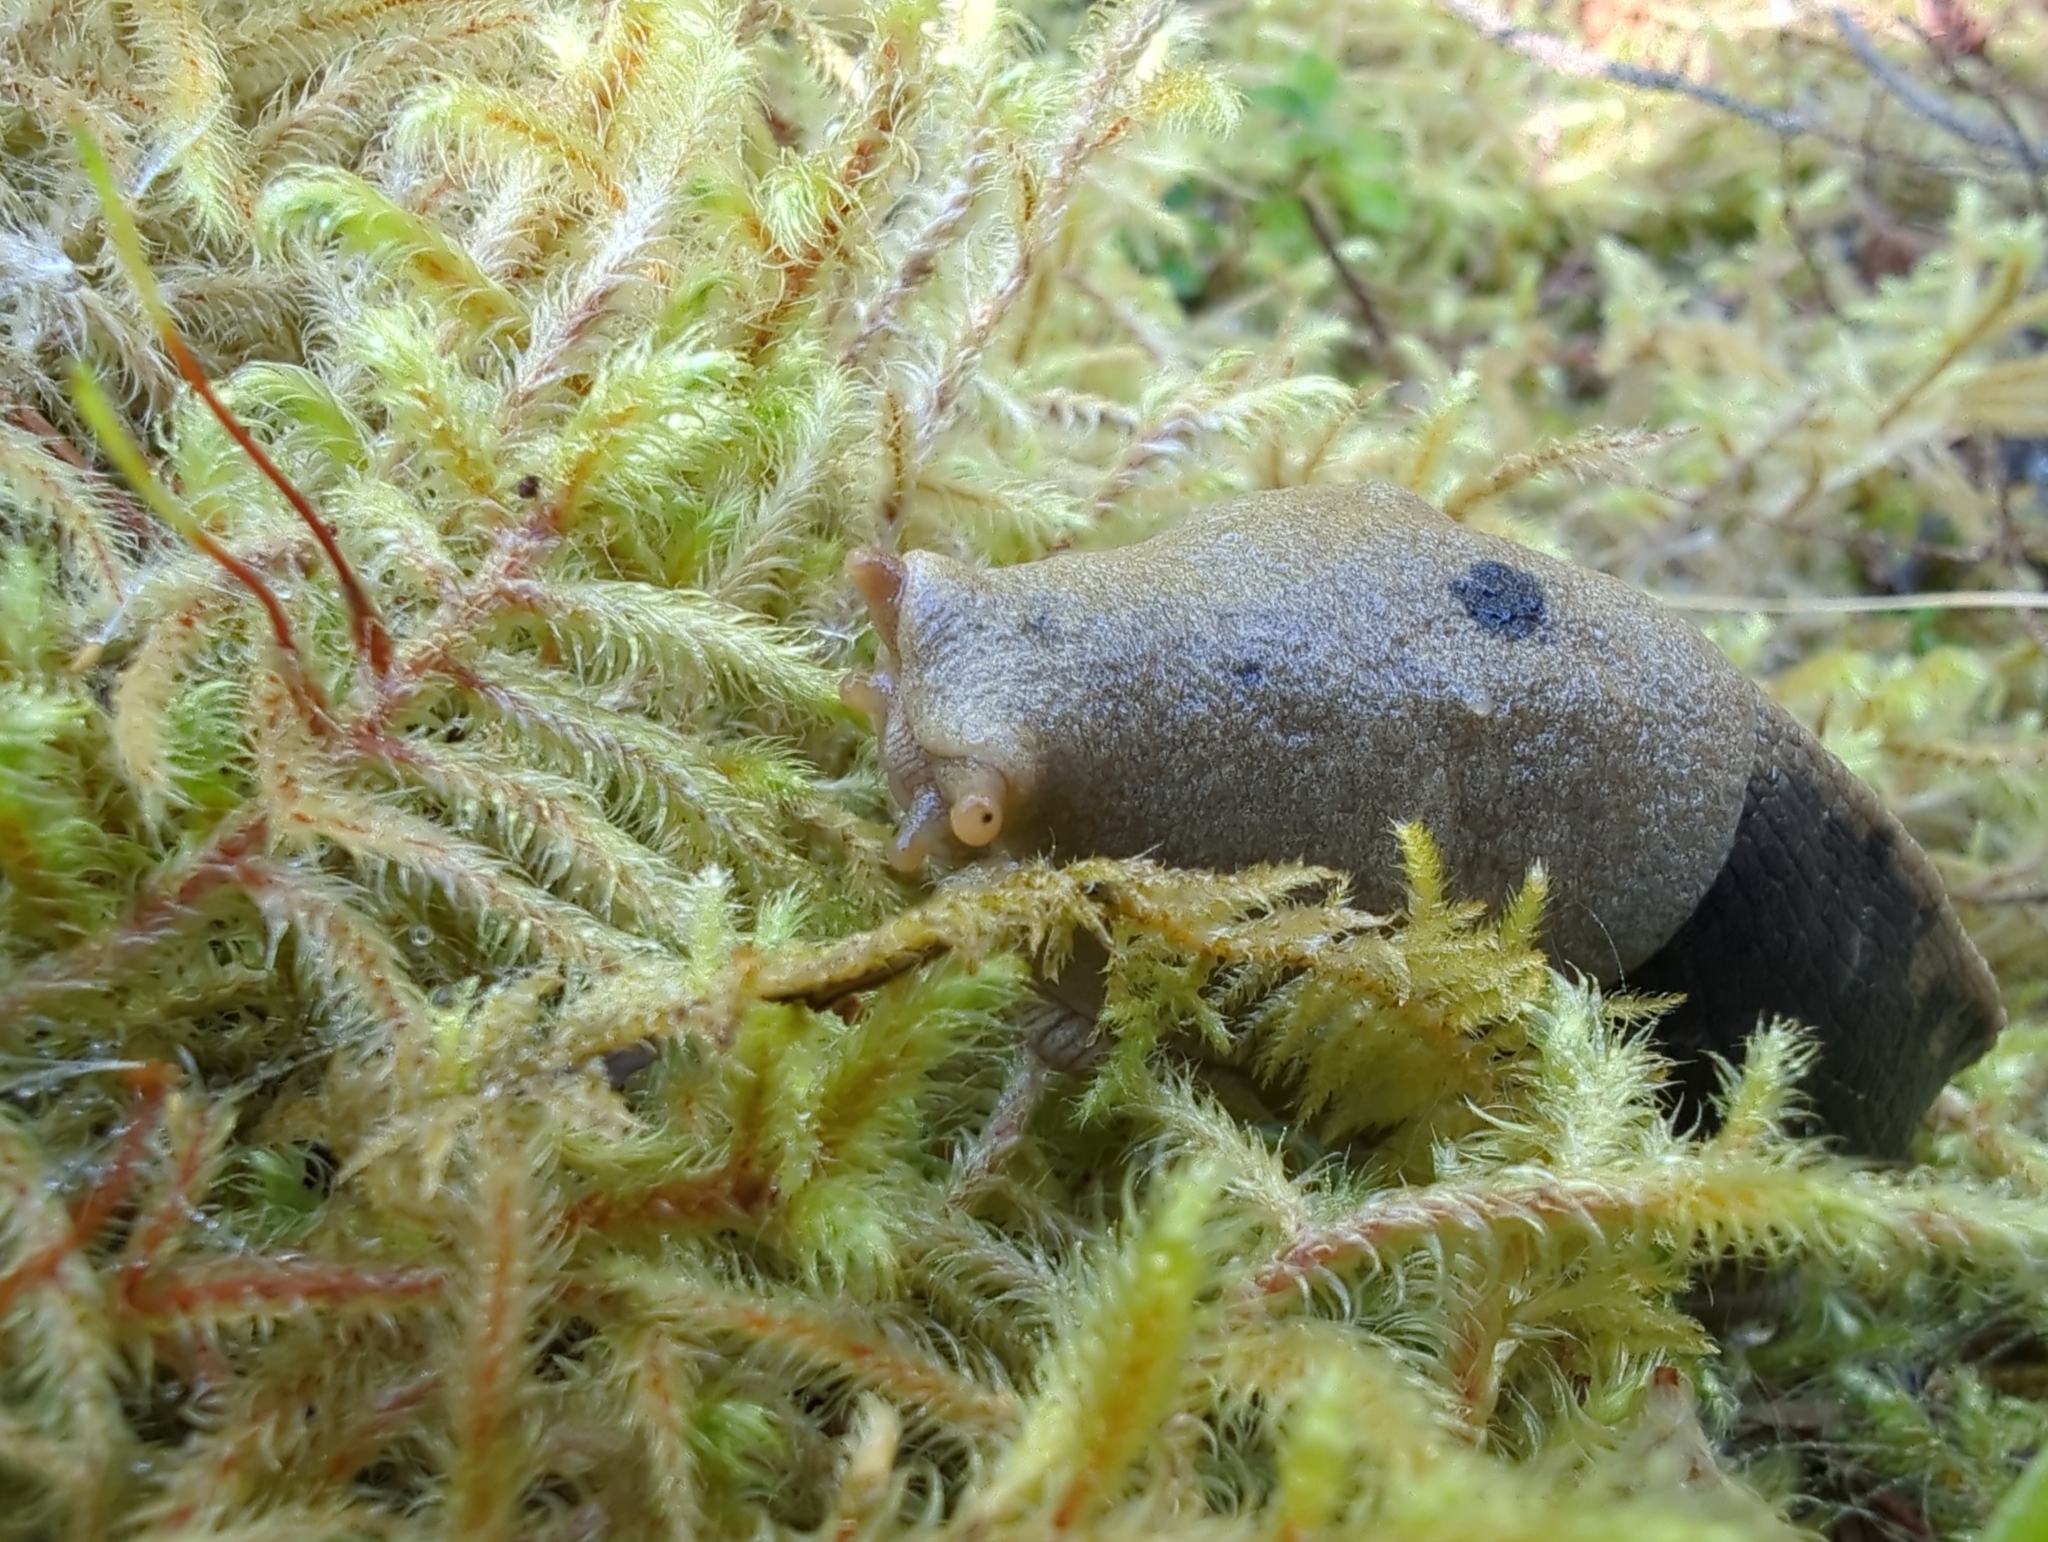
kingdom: Animalia
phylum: Mollusca
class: Gastropoda
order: Stylommatophora
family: Ariolimacidae
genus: Ariolimax
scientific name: Ariolimax columbianus
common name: Pacific banana slug
